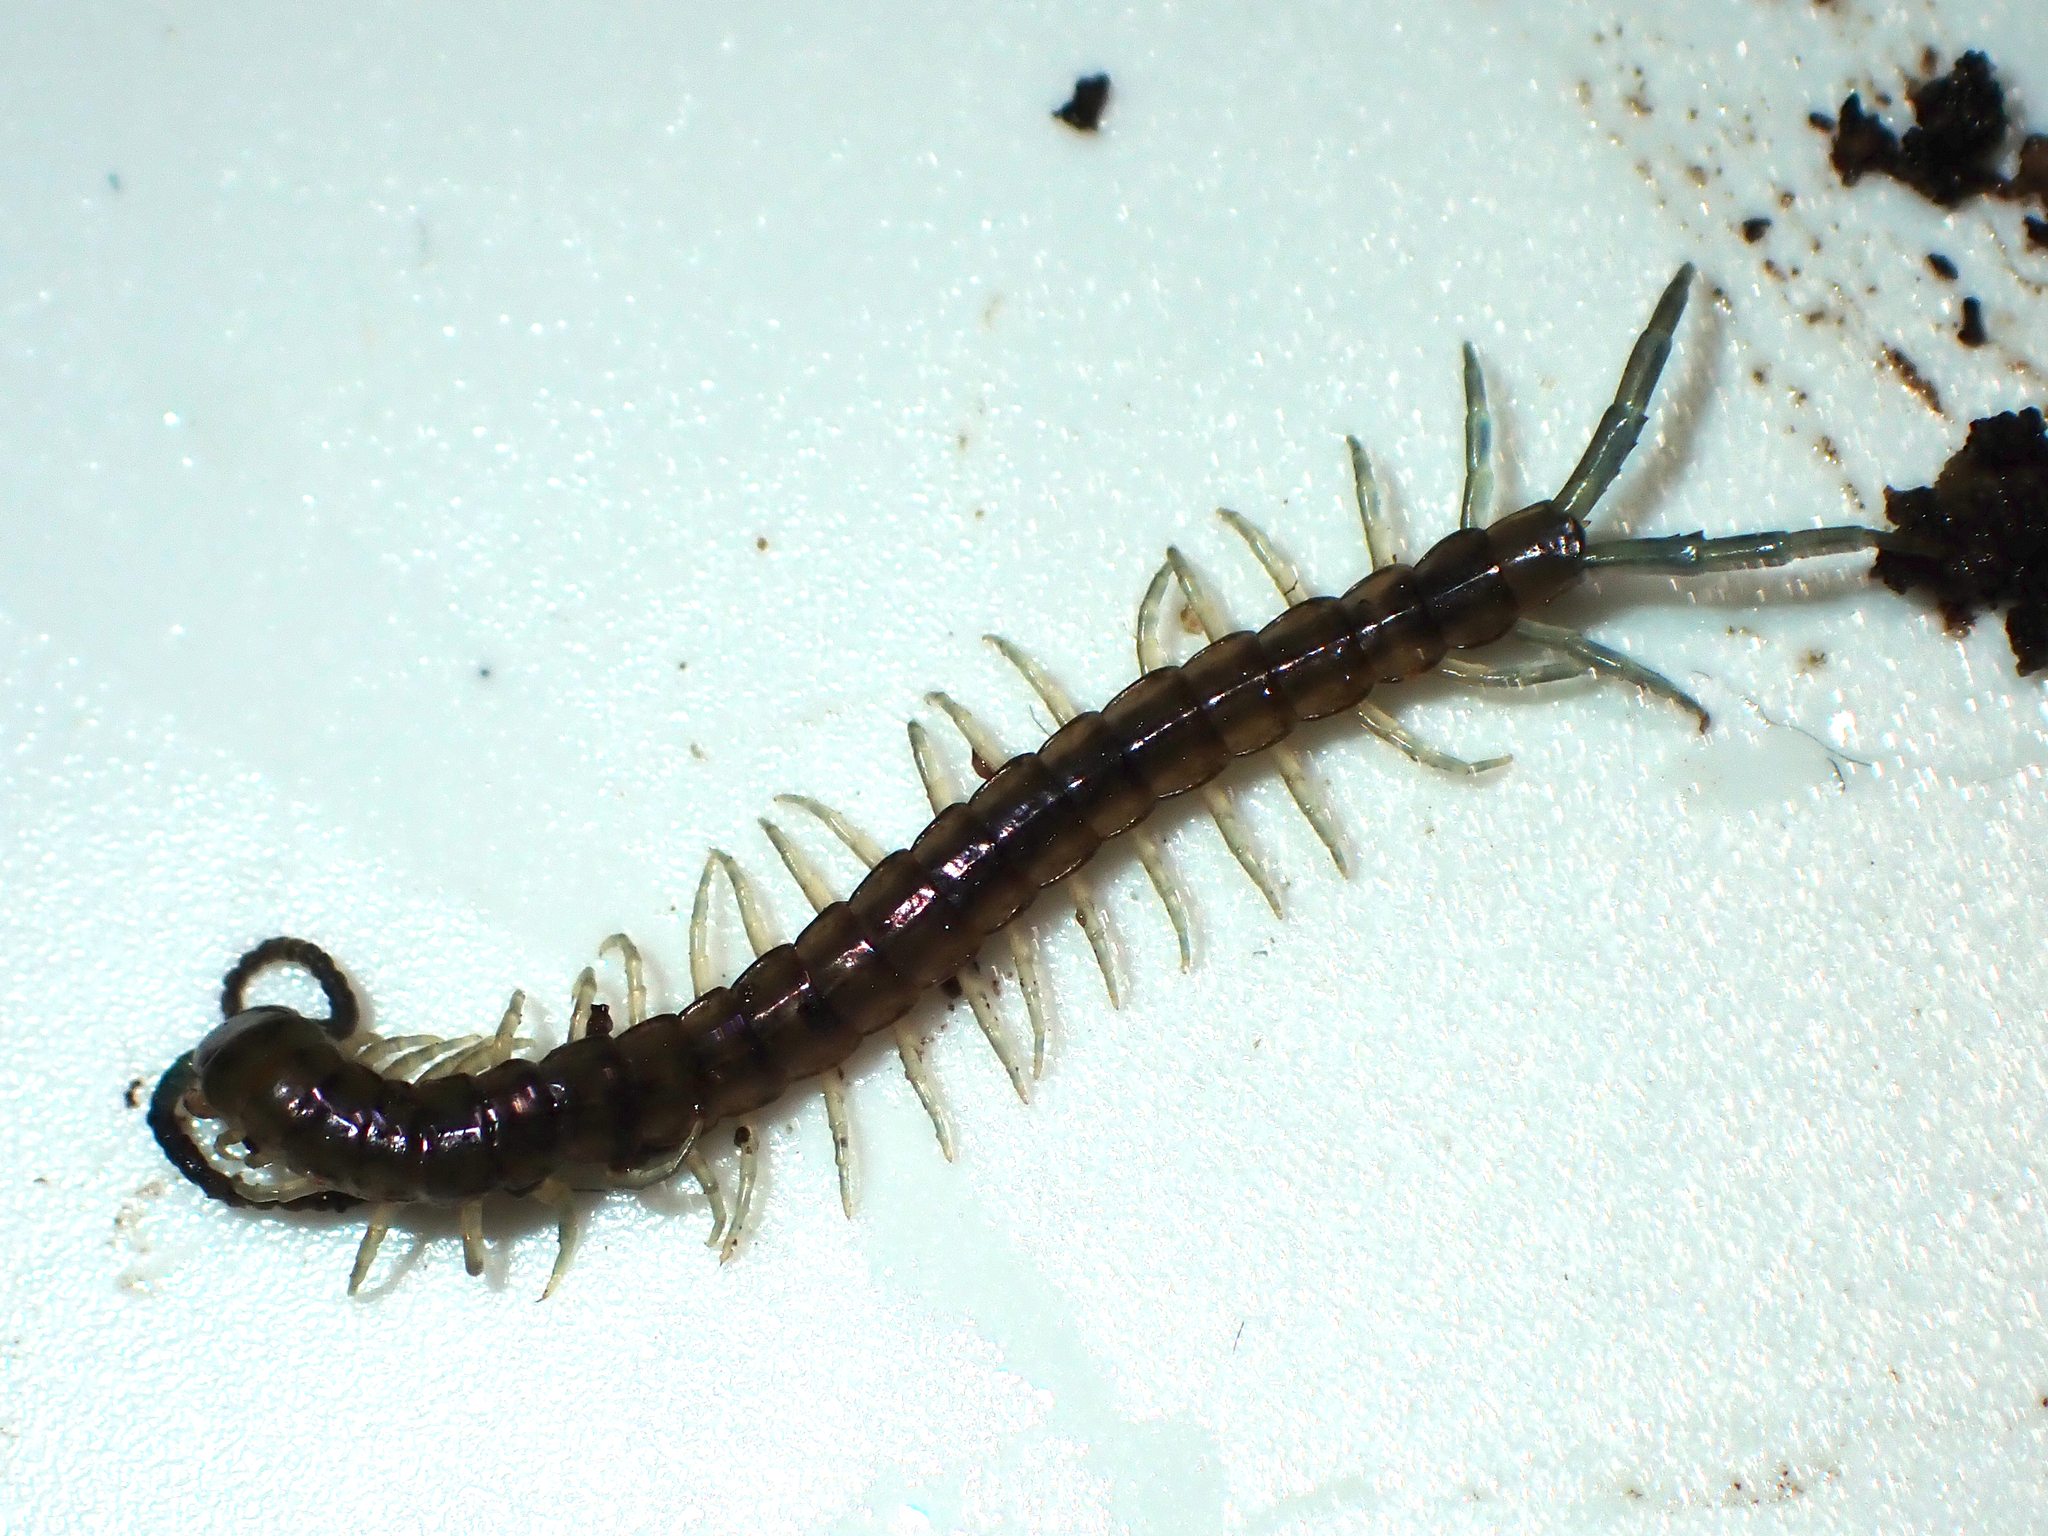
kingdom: Animalia
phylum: Arthropoda
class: Chilopoda
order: Scolopendromorpha
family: Scolopendridae
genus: Cormocephalus
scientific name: Cormocephalus rubriceps
